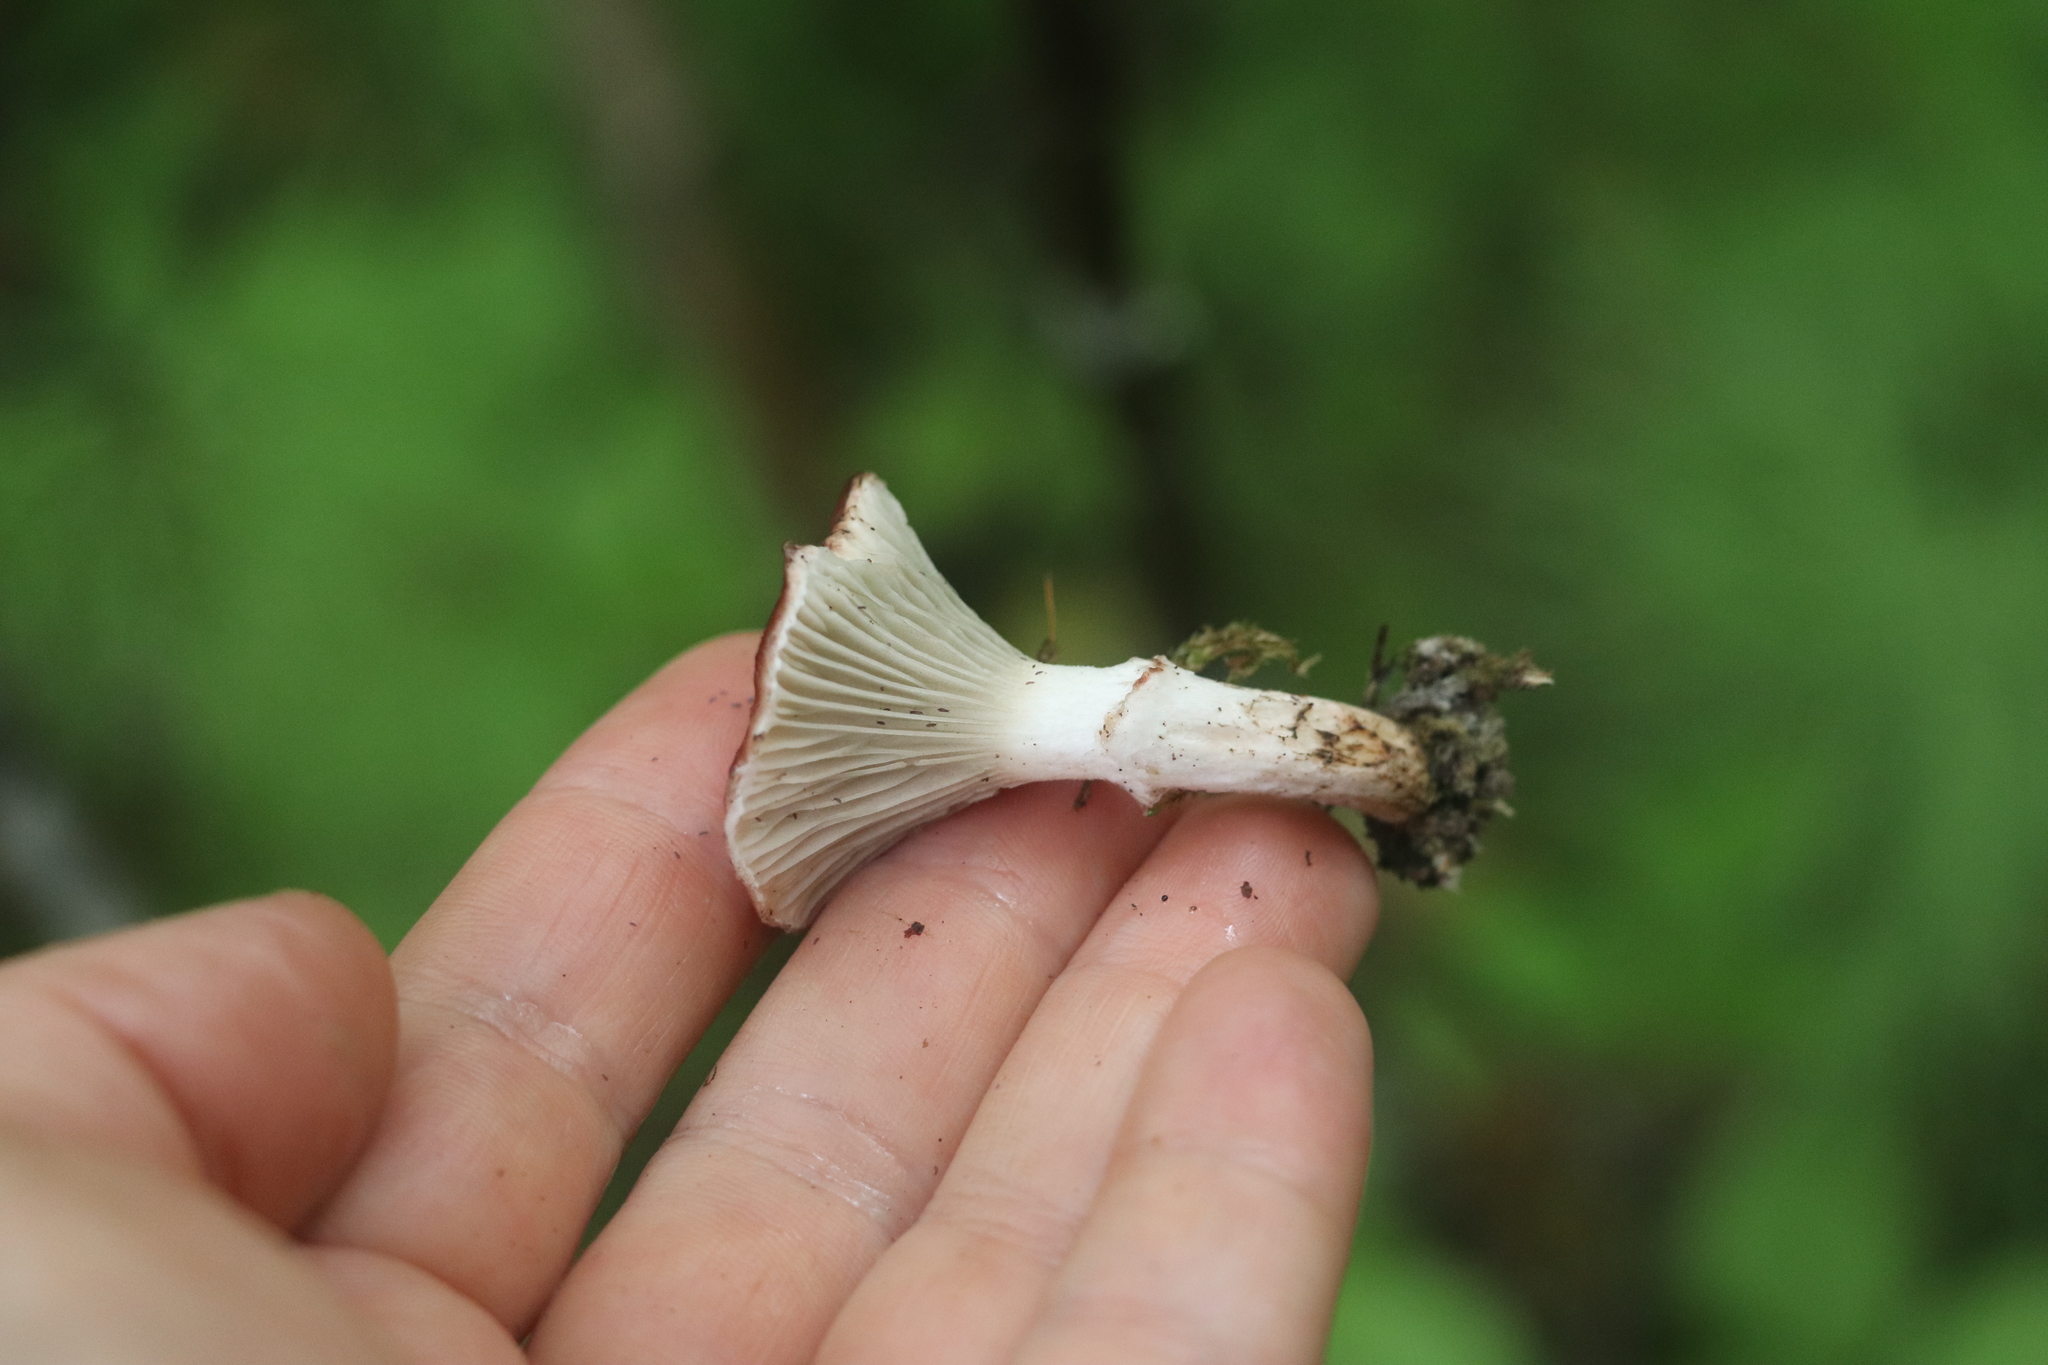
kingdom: Fungi
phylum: Basidiomycota
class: Agaricomycetes
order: Boletales
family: Gomphidiaceae
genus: Gomphidius
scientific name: Gomphidius roseus
